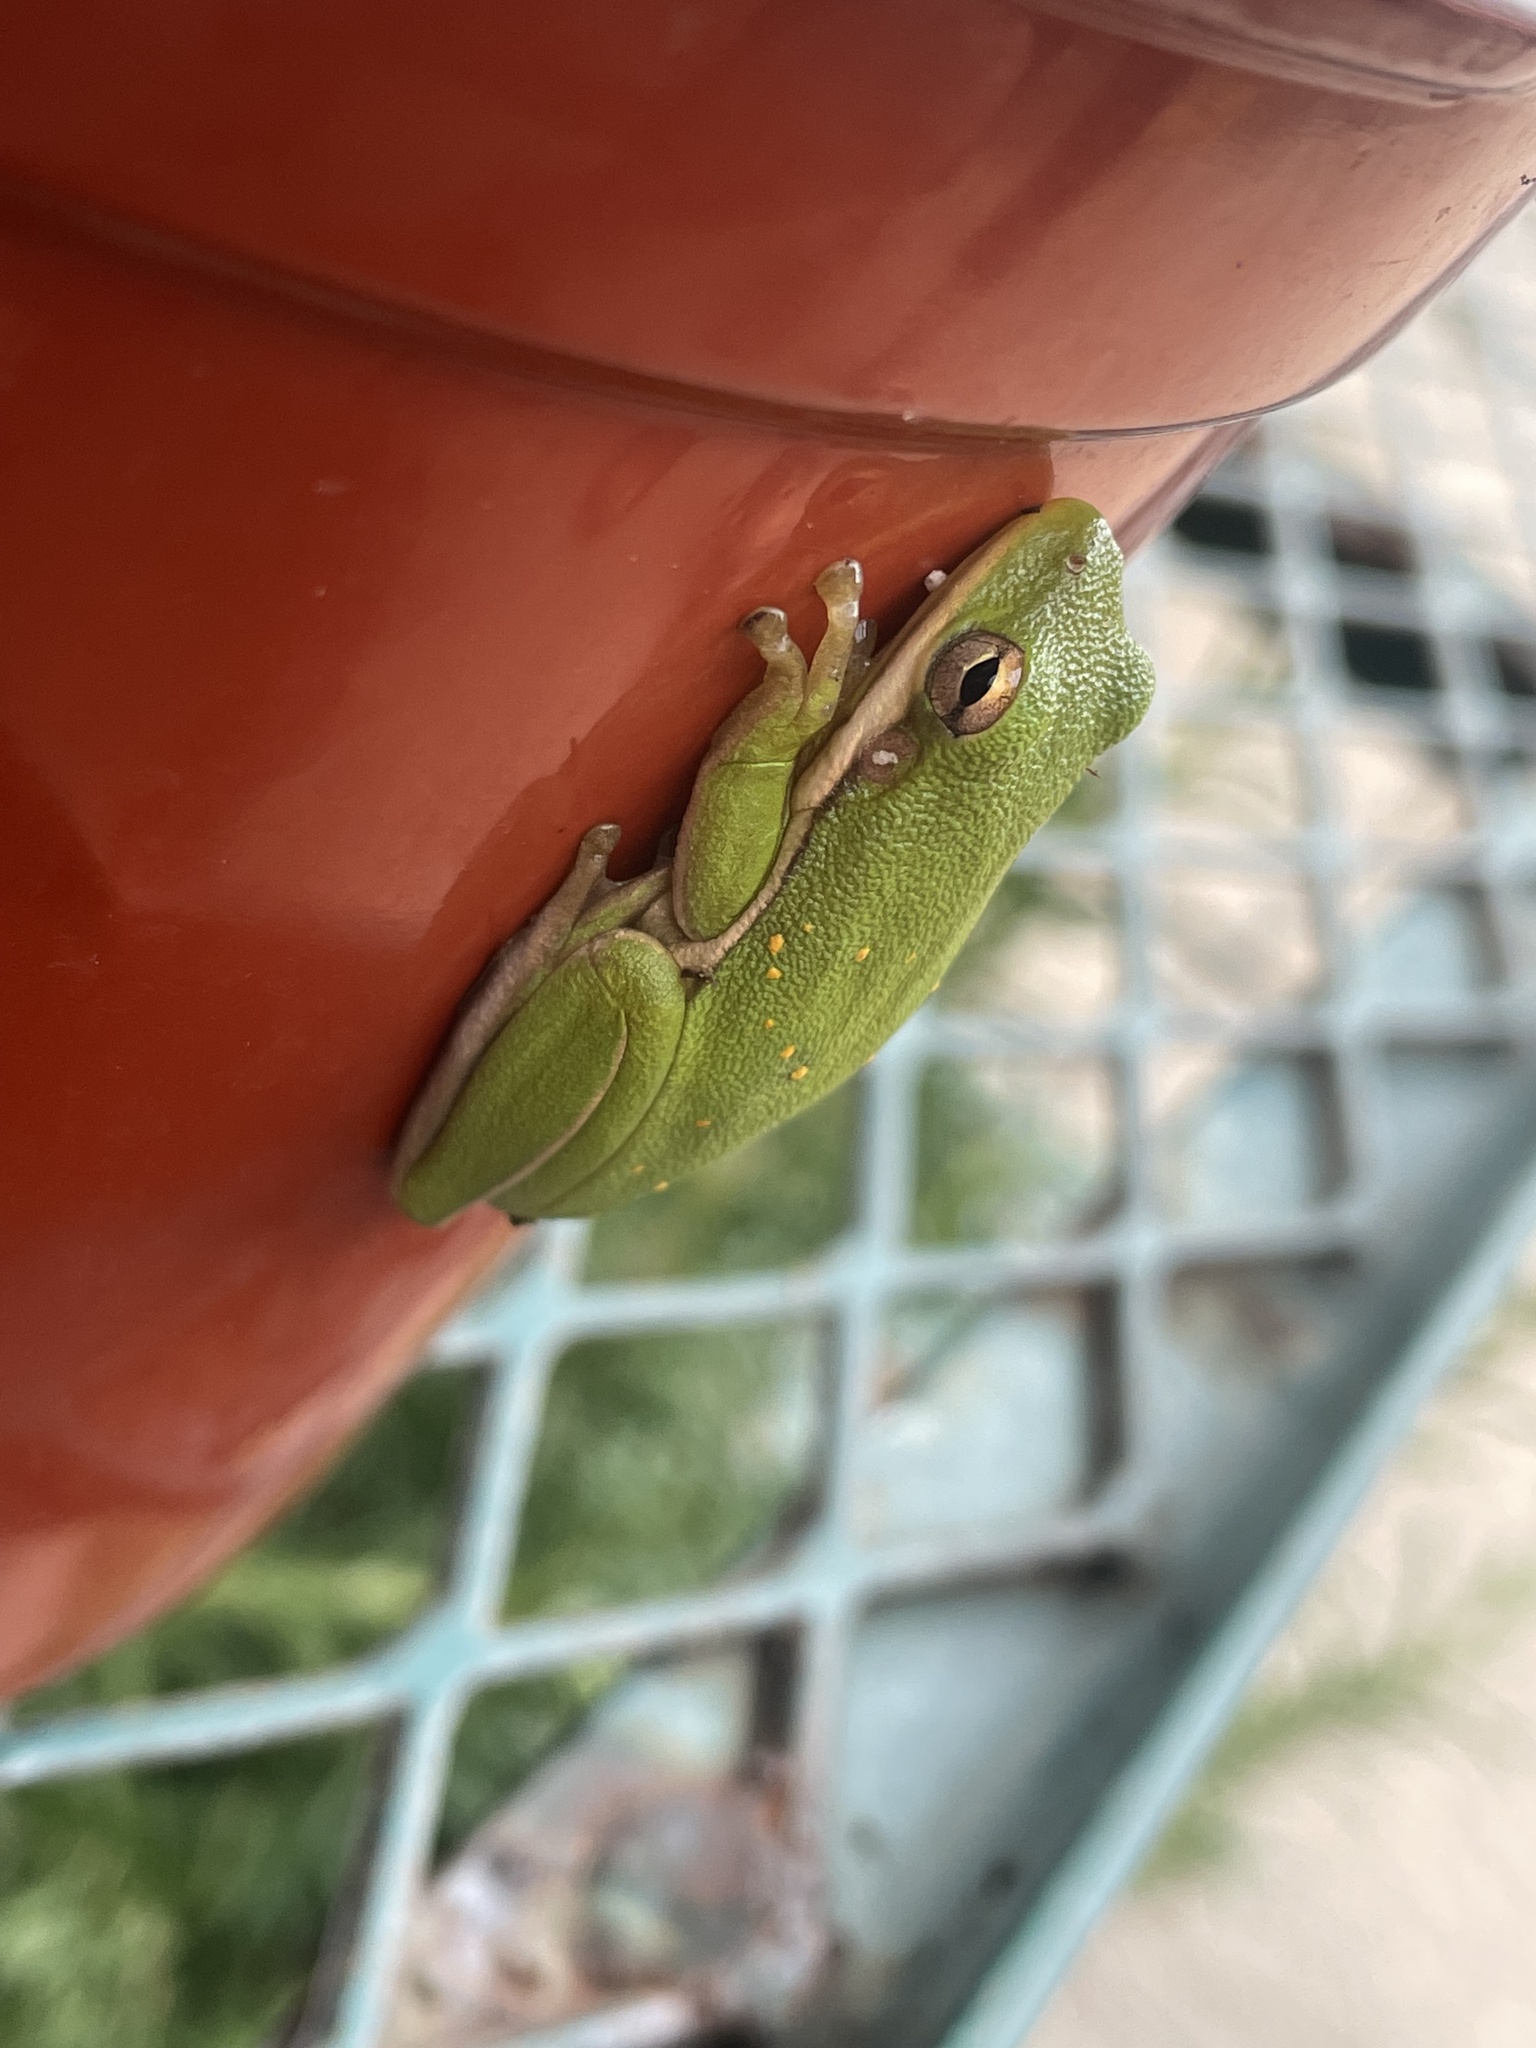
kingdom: Animalia
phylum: Chordata
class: Amphibia
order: Anura
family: Hylidae
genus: Dryophytes
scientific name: Dryophytes cinereus
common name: Green treefrog
